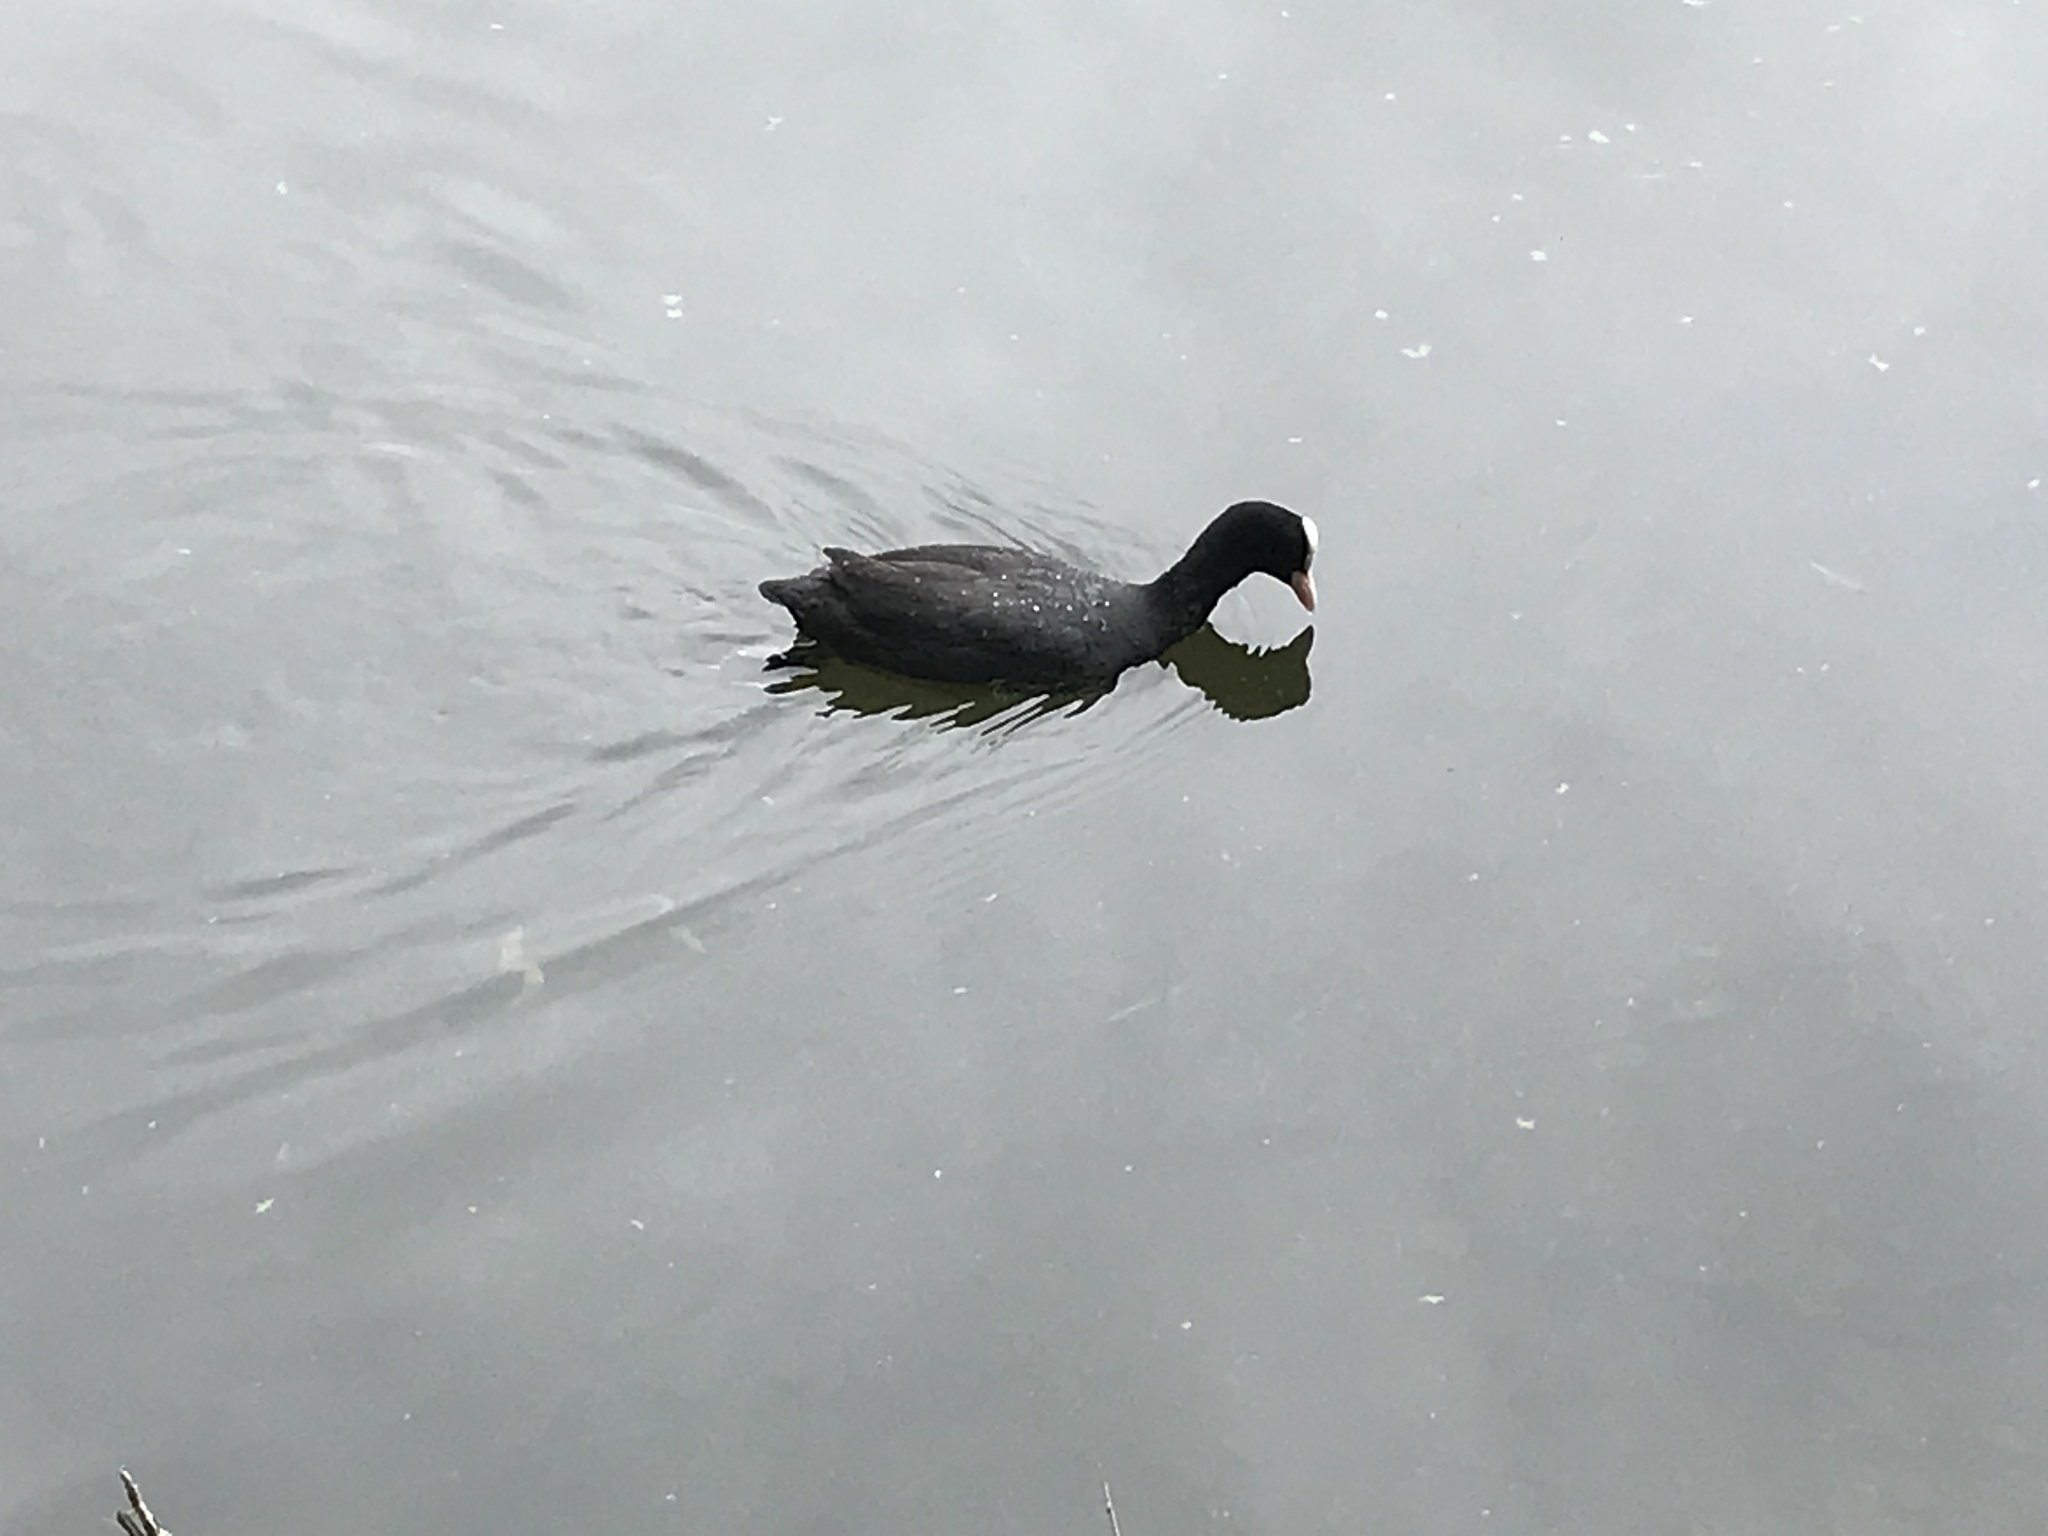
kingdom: Animalia
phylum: Chordata
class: Aves
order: Gruiformes
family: Rallidae
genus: Fulica
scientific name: Fulica atra
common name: Eurasian coot
